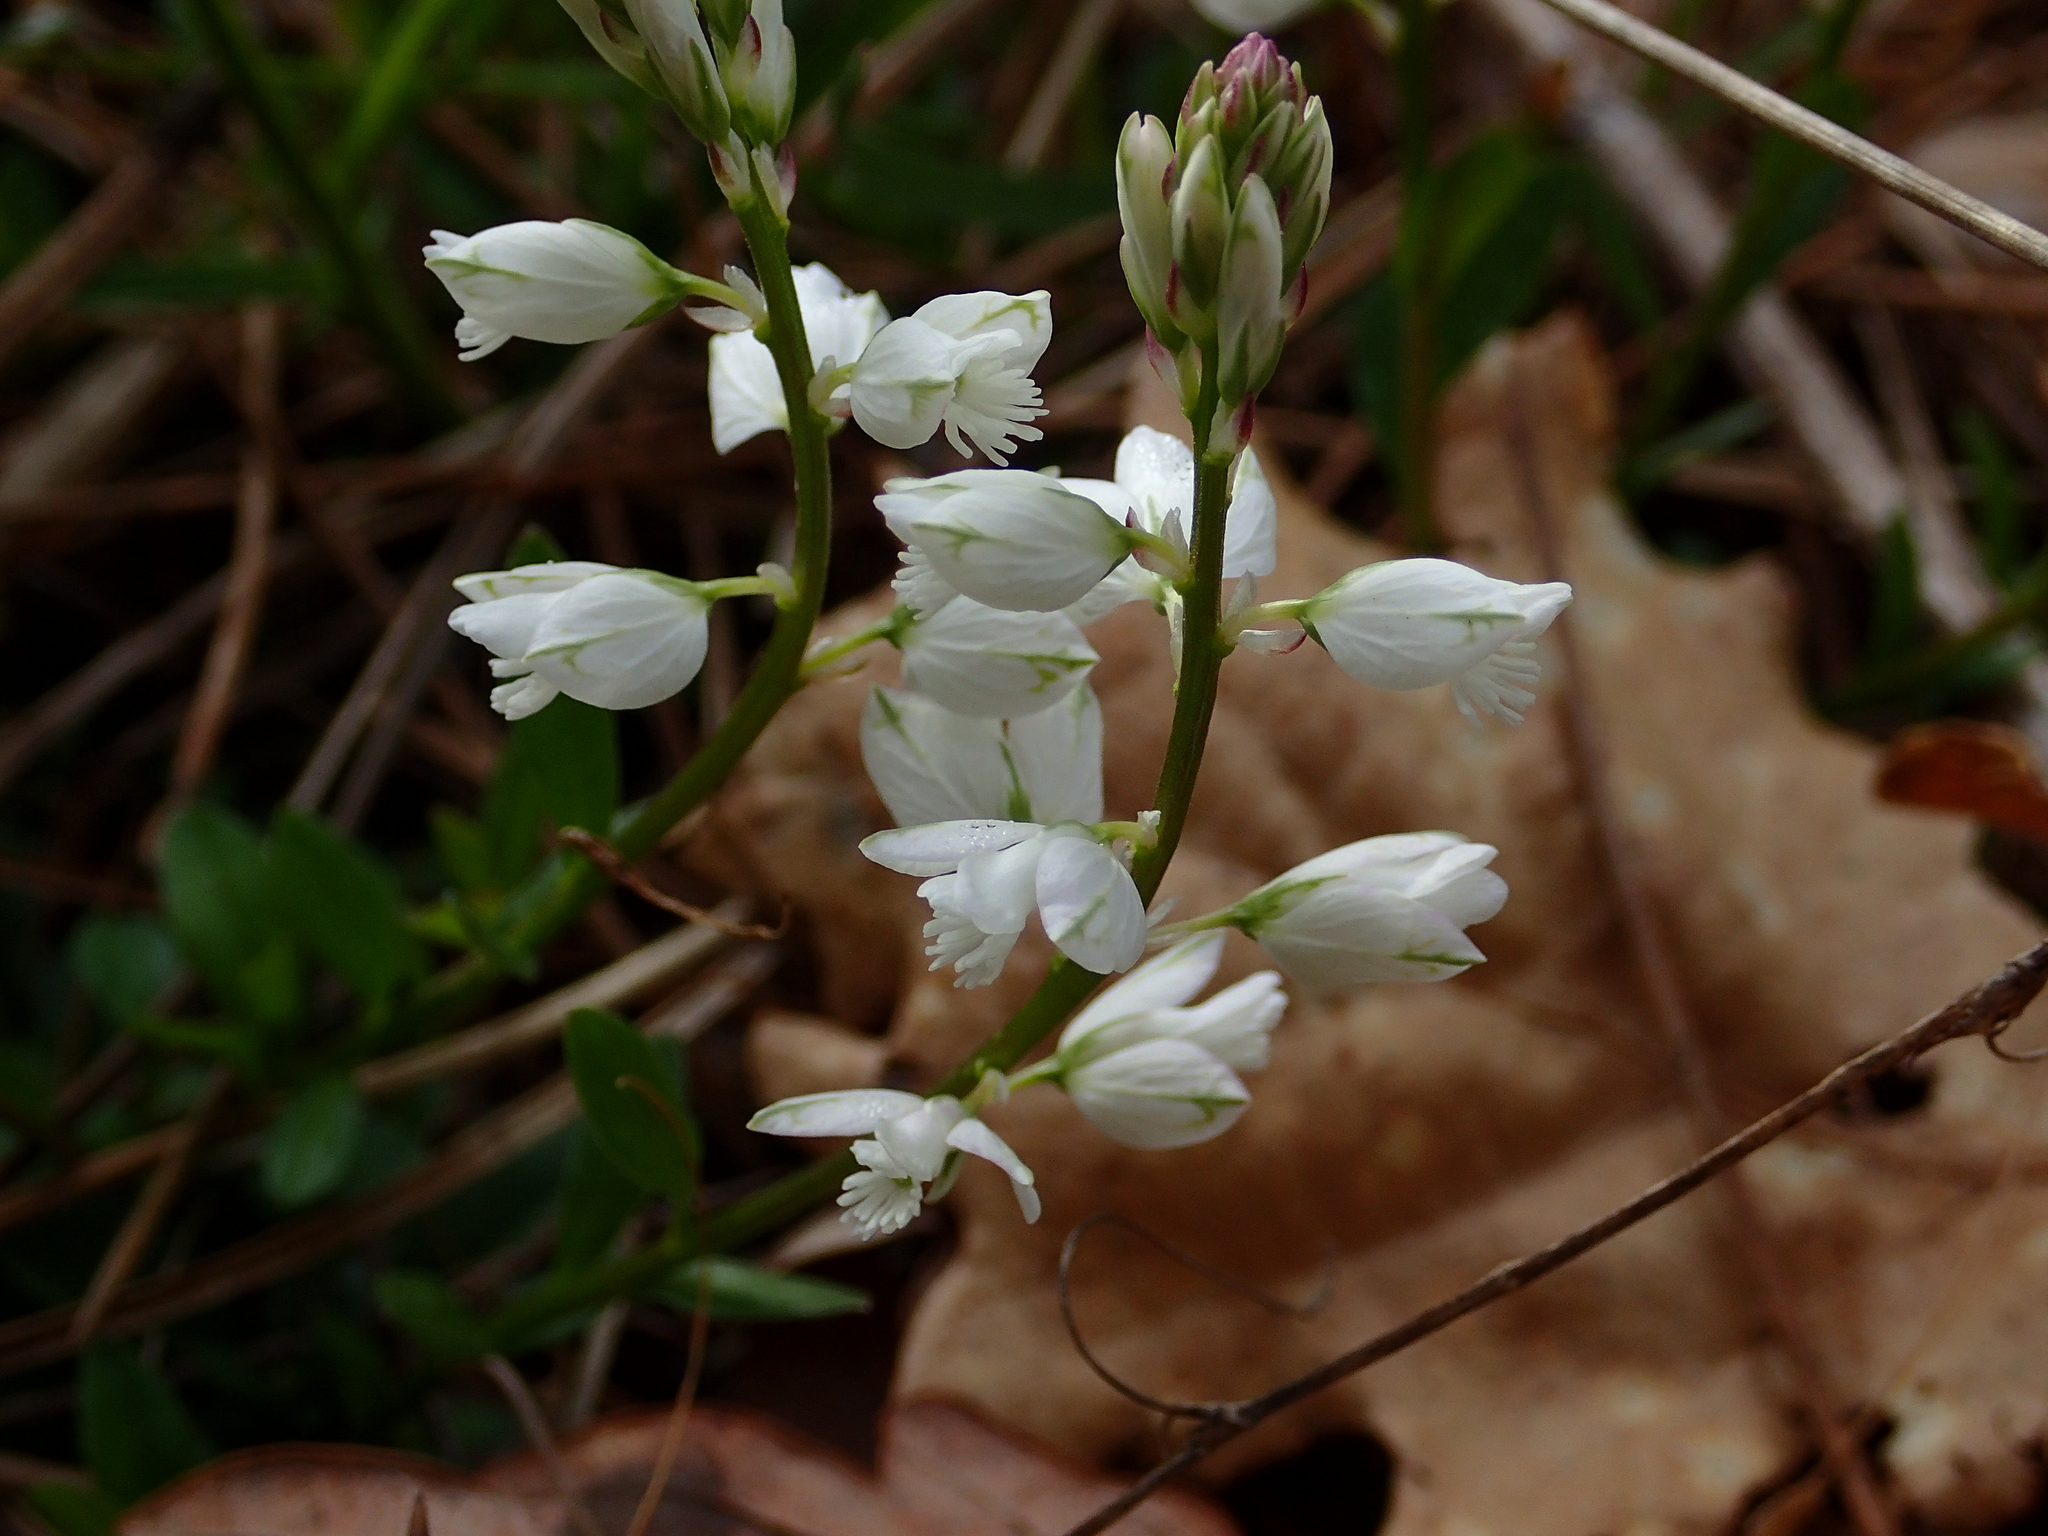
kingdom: Plantae
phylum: Tracheophyta
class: Magnoliopsida
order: Fabales
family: Polygalaceae
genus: Polygala
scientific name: Polygala calcarea
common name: Chalk milkwort
